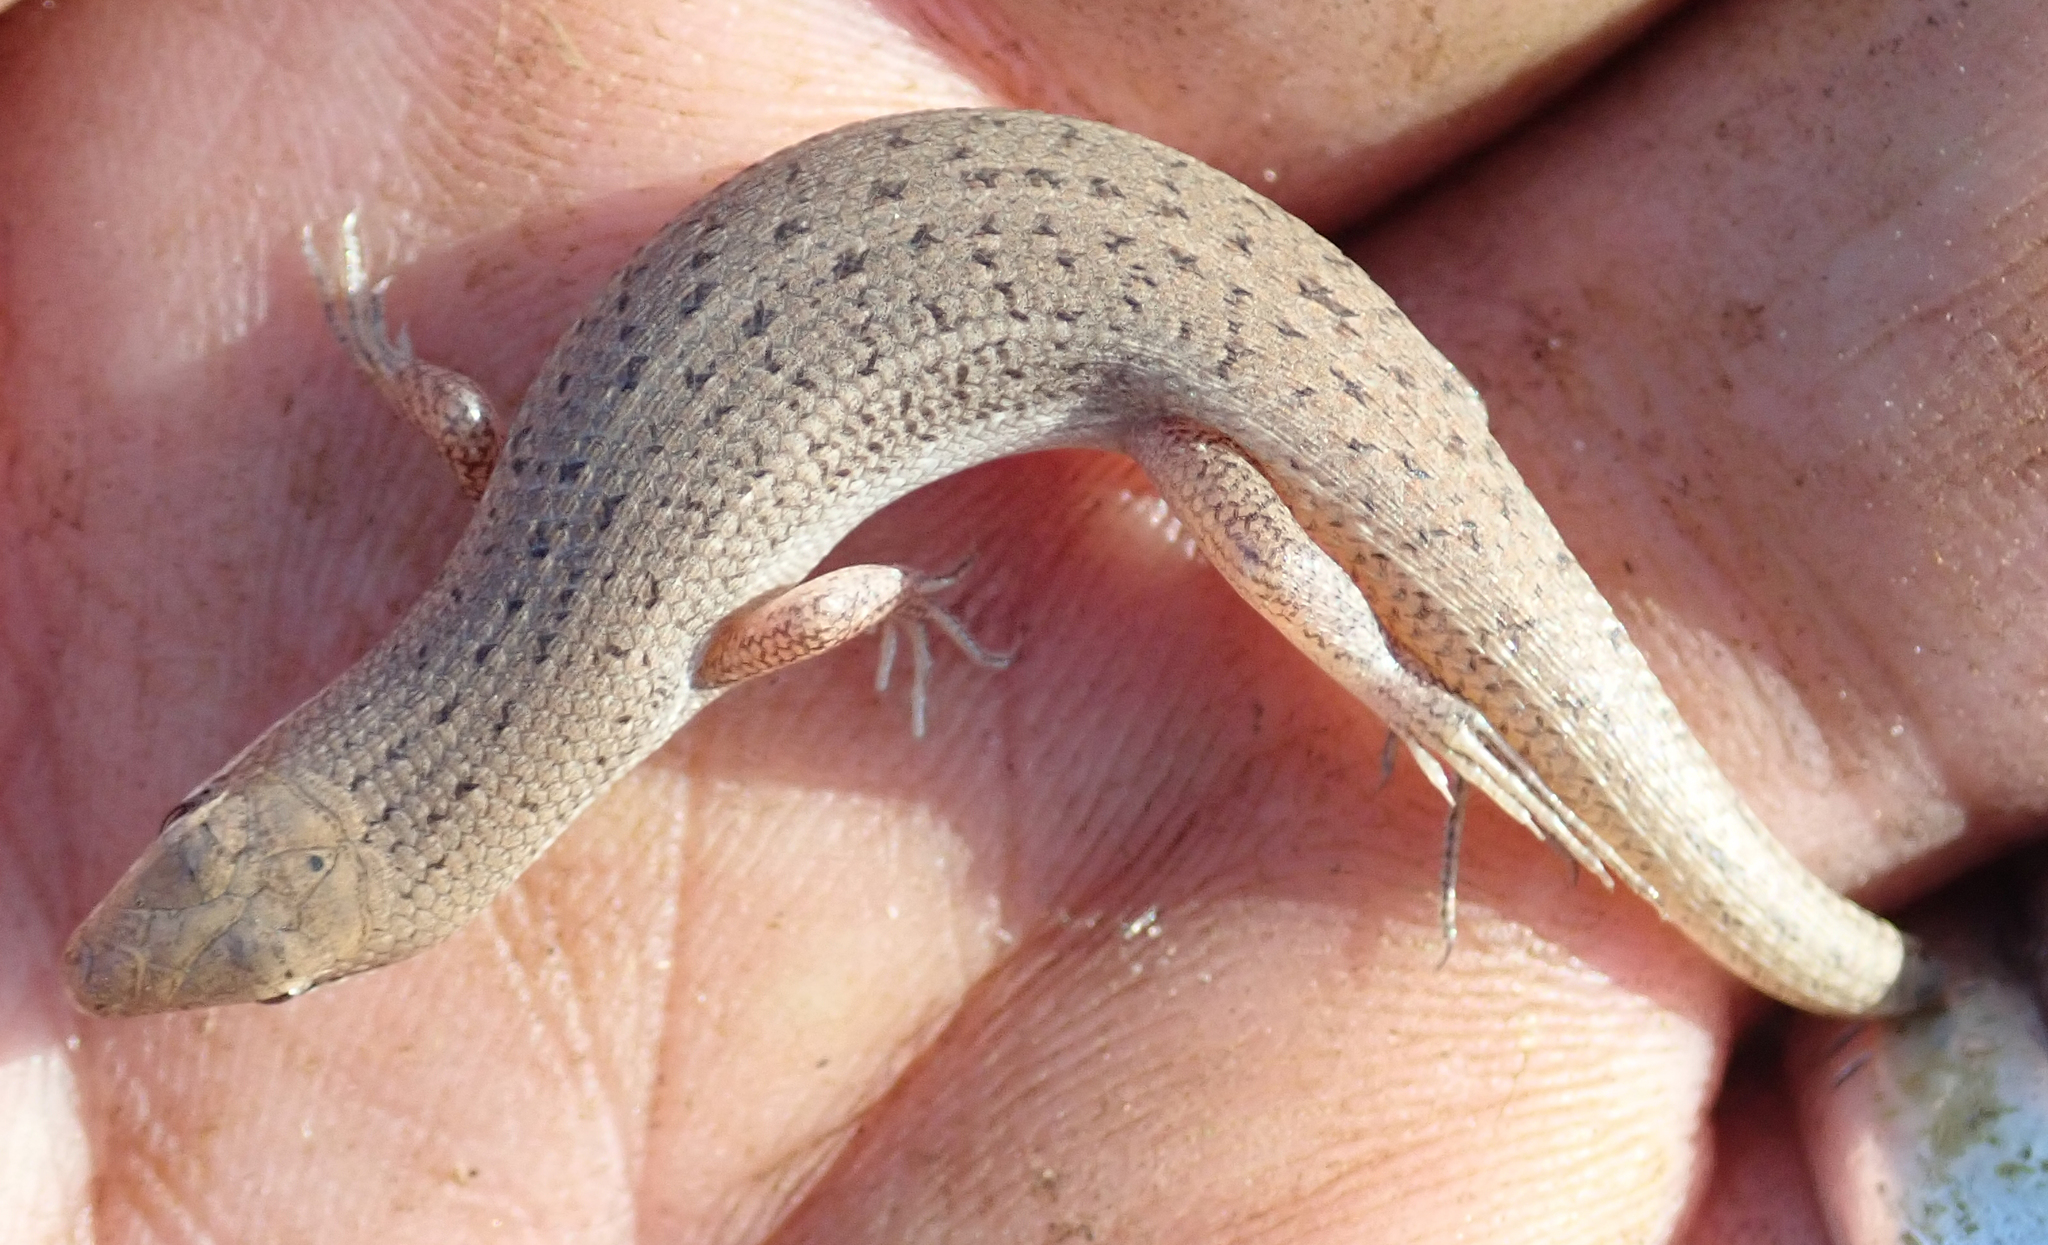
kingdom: Animalia
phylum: Chordata
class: Squamata
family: Scincidae
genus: Trachylepis
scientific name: Trachylepis punctulata
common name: Speckled sand skink
